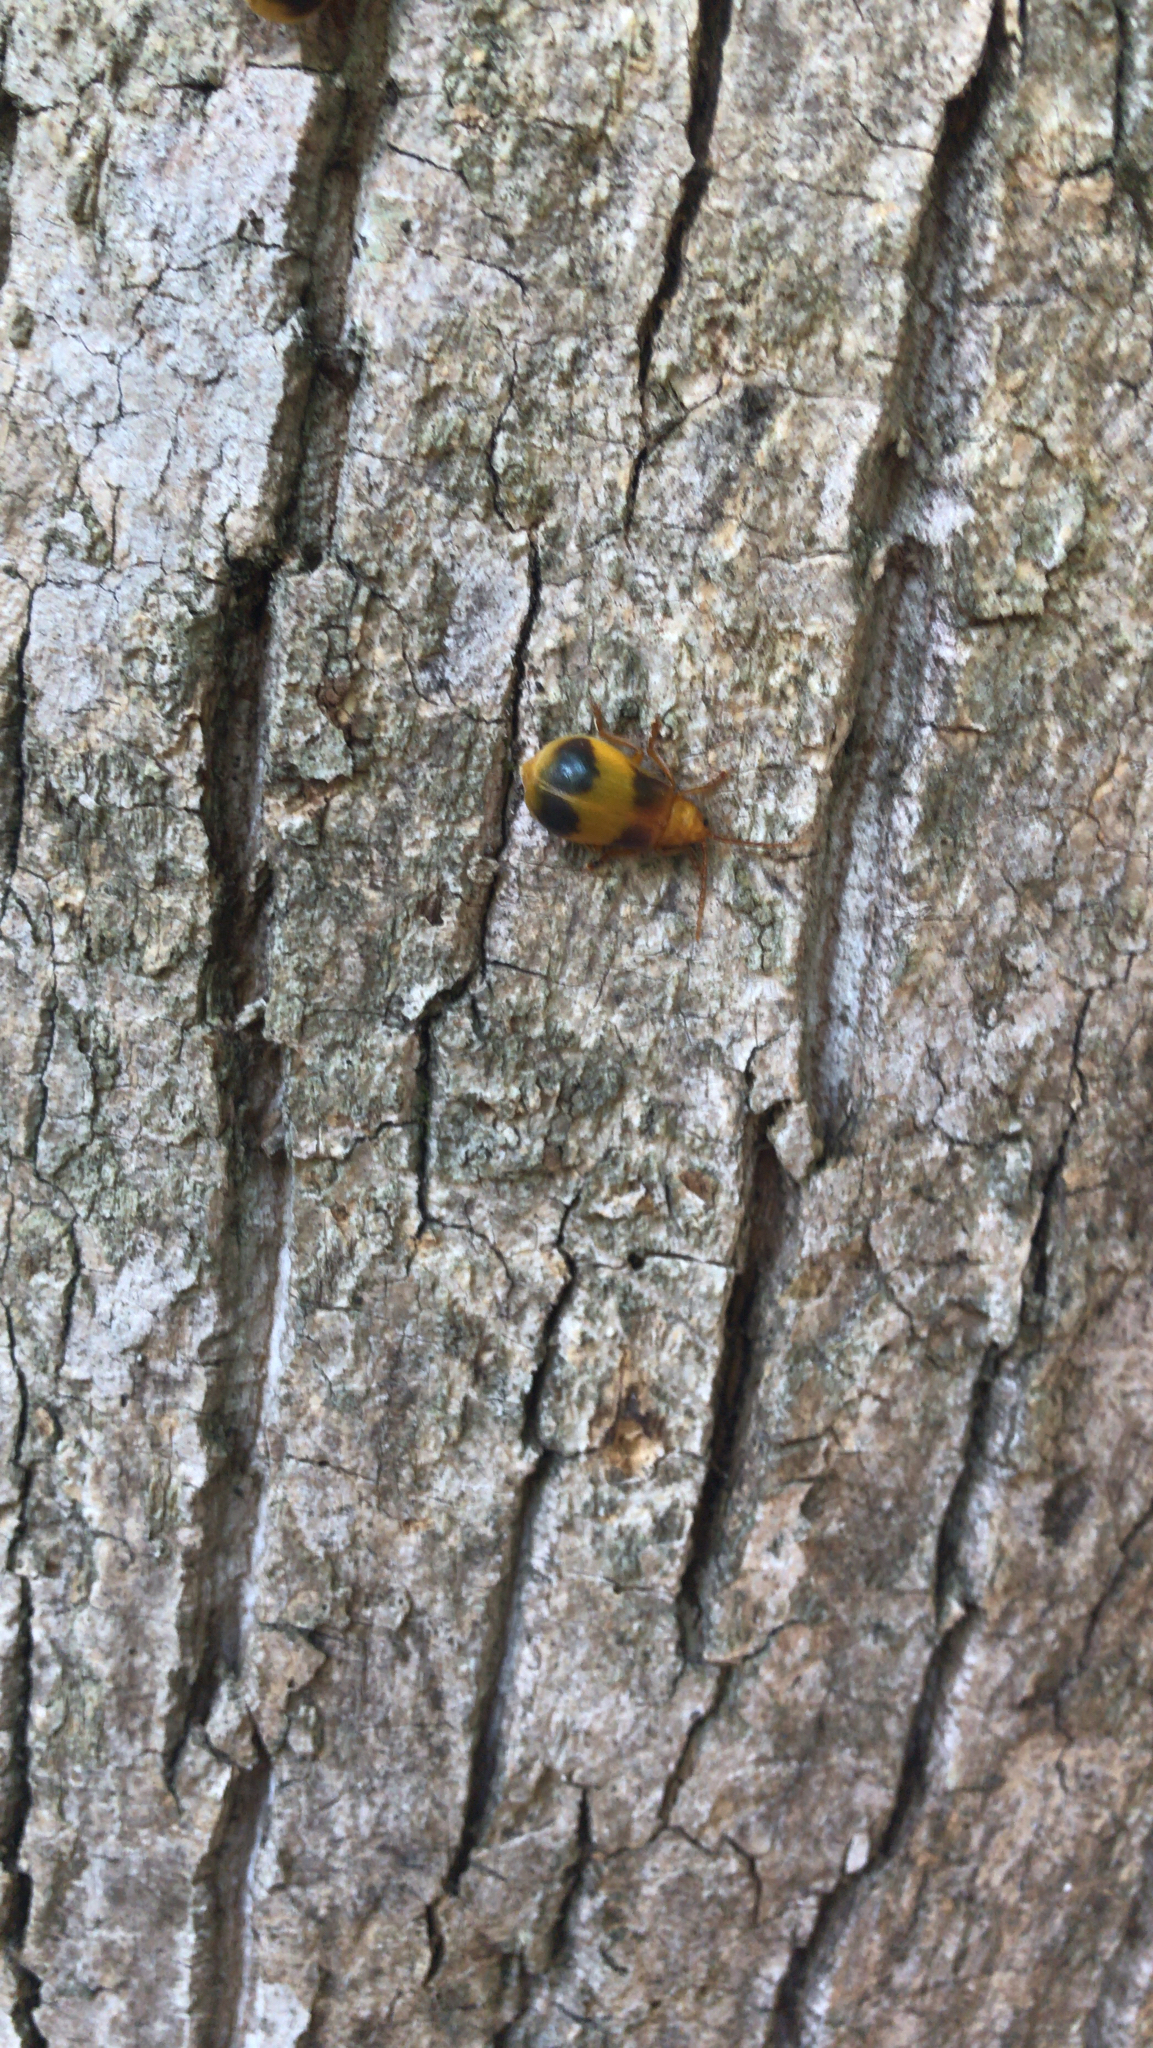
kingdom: Animalia
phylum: Arthropoda
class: Insecta
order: Coleoptera
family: Chrysomelidae
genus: Monocesta
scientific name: Monocesta coryli
